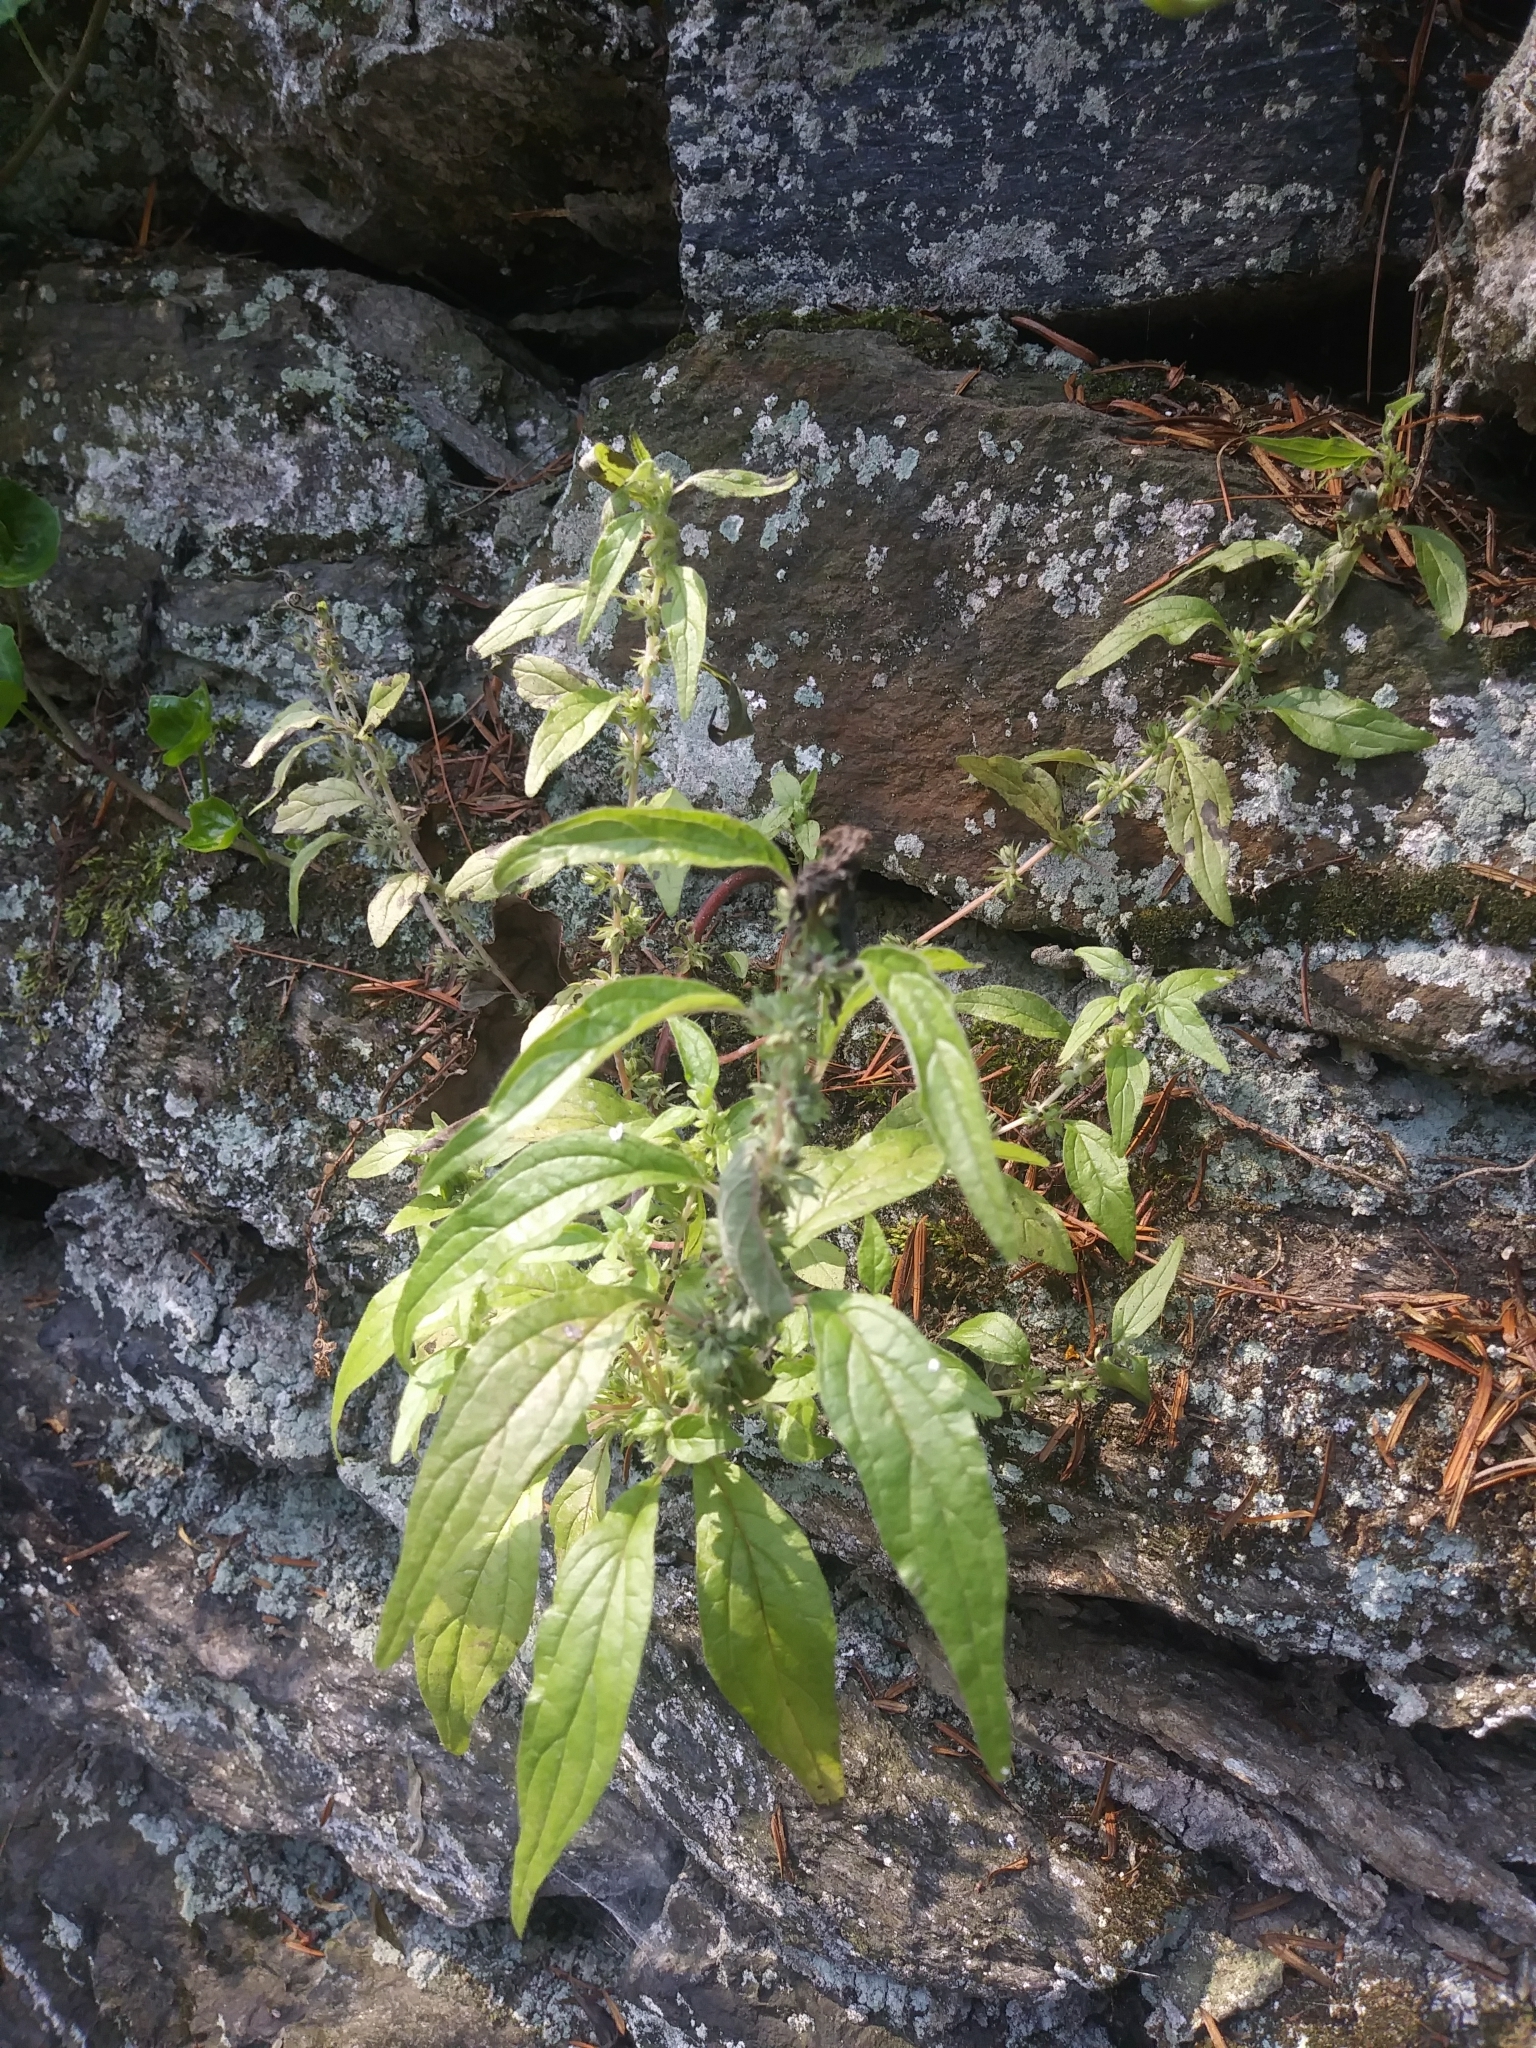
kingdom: Plantae
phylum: Tracheophyta
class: Magnoliopsida
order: Rosales
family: Urticaceae
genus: Parietaria
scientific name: Parietaria pensylvanica
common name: Pennsylvania pellitory
